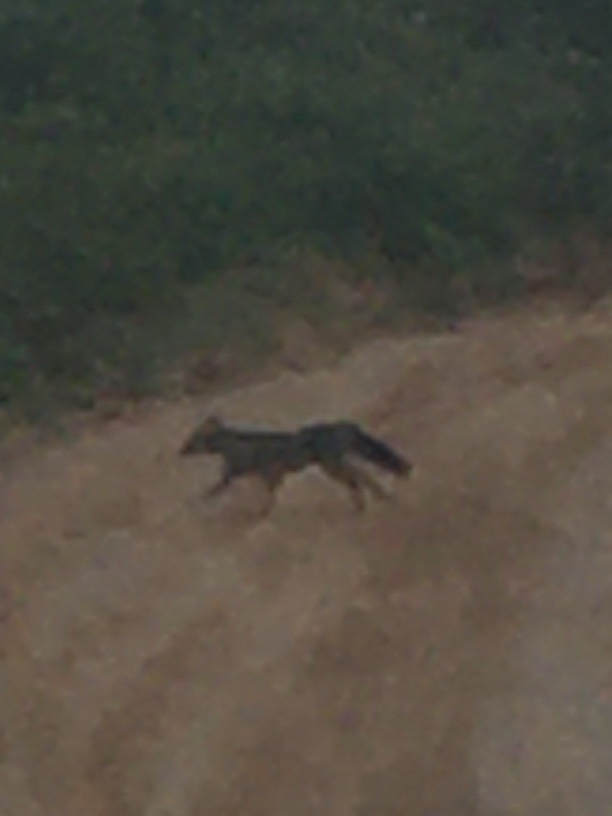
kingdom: Animalia
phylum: Chordata
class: Mammalia
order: Carnivora
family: Canidae
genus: Cerdocyon
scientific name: Cerdocyon thous
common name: Crab-eating fox
